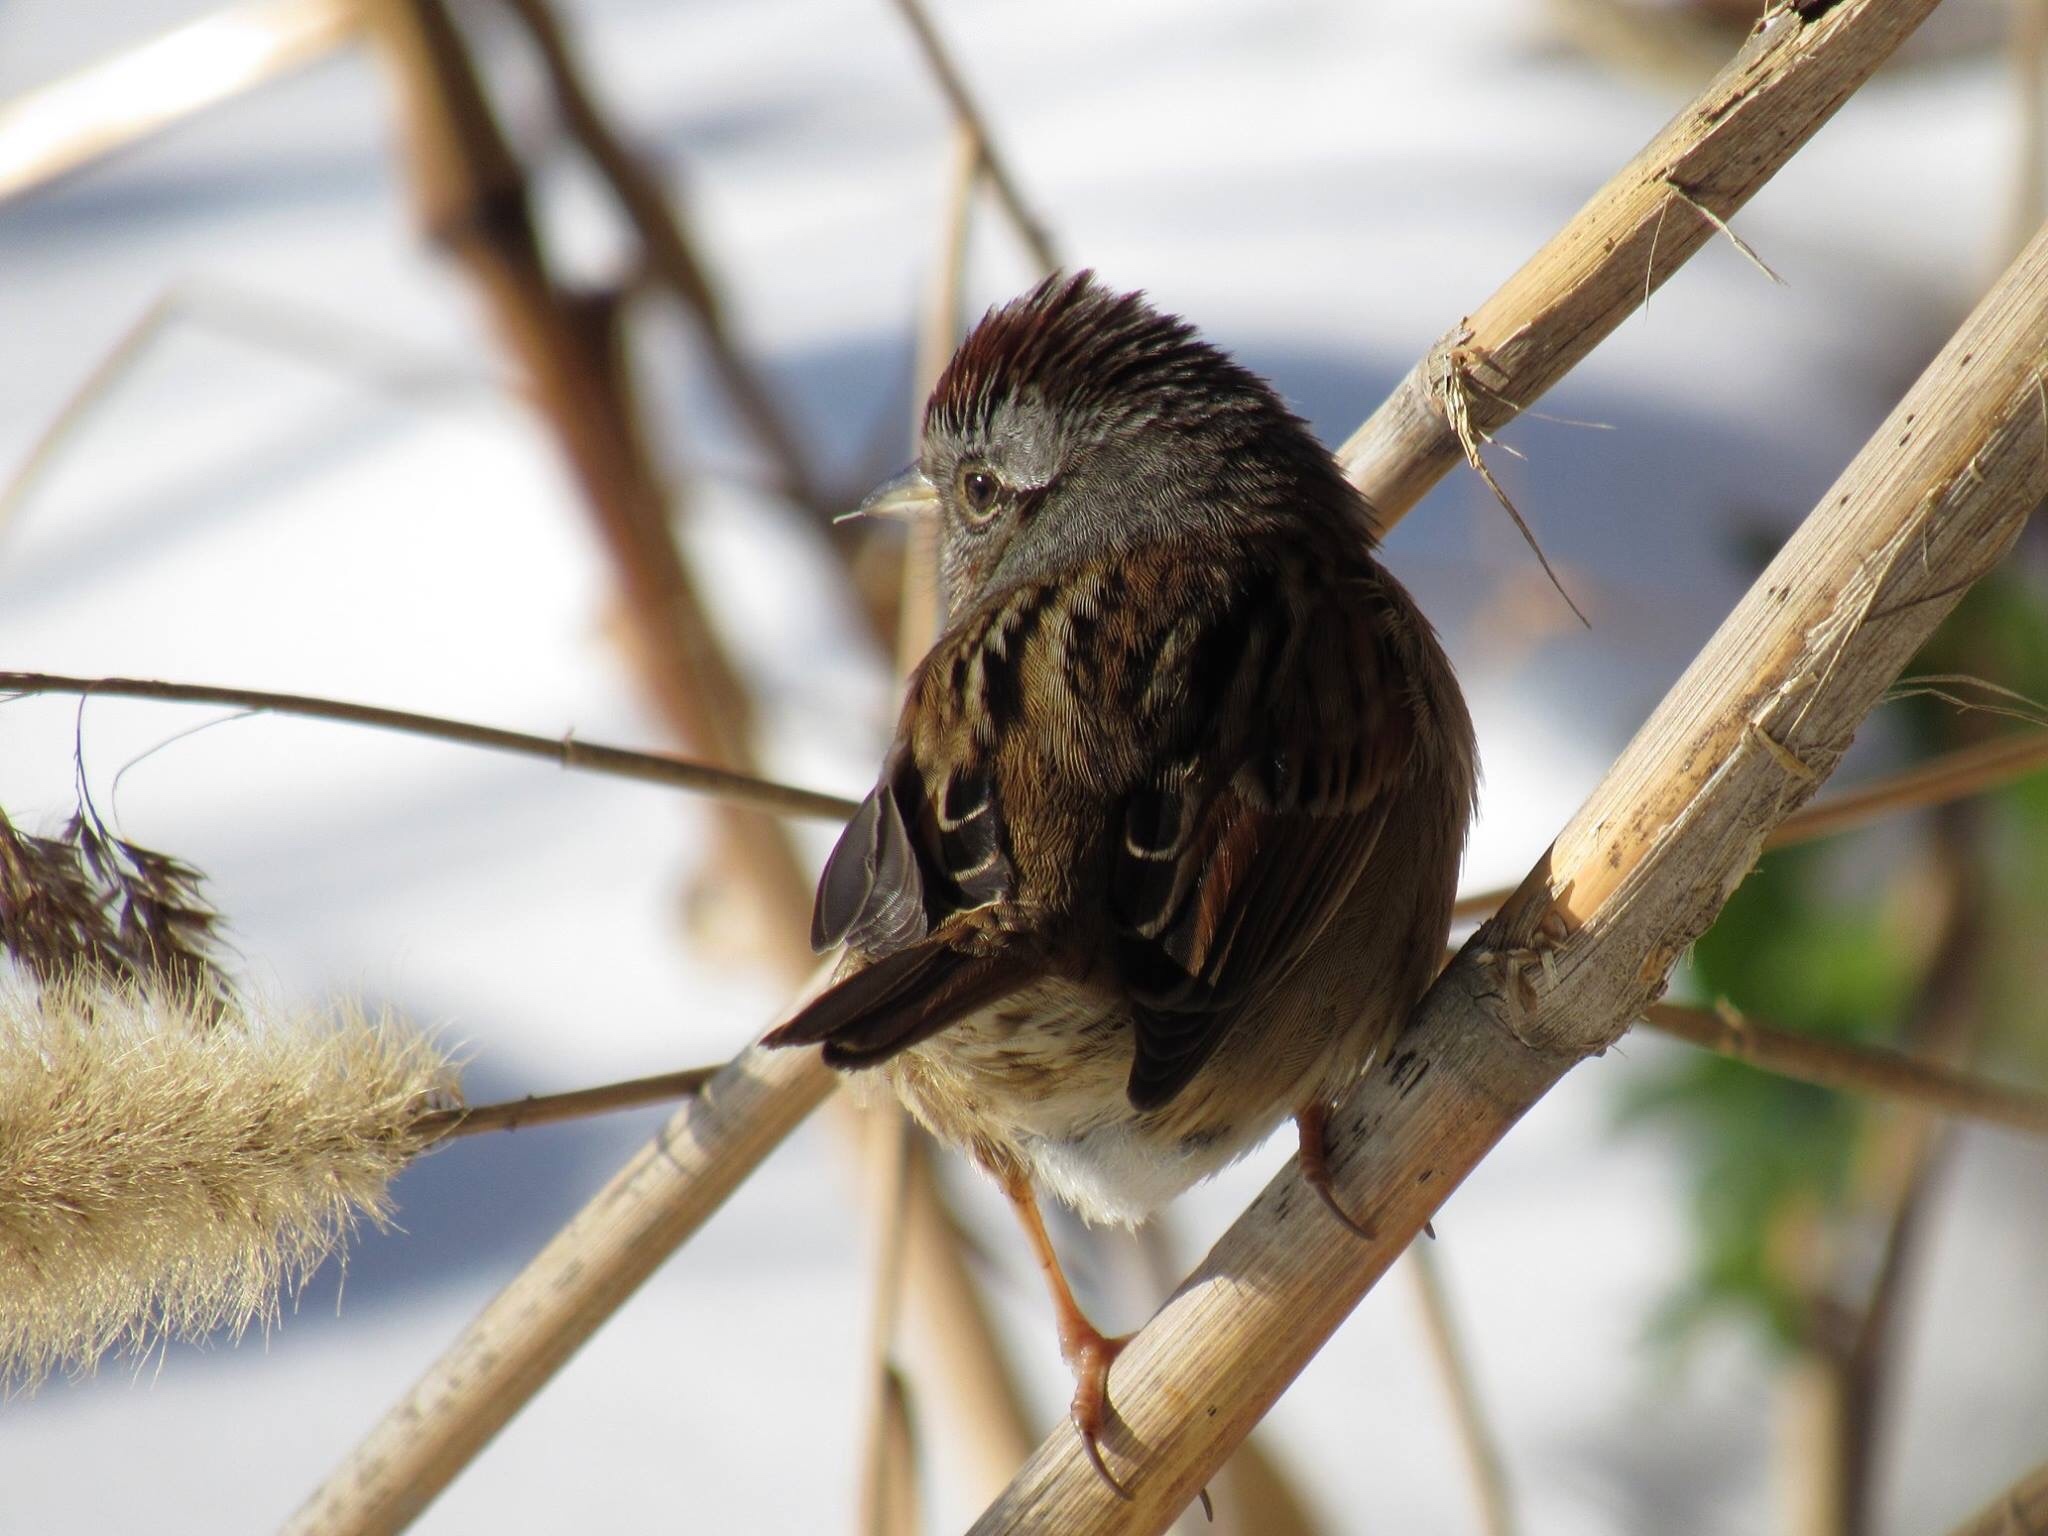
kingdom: Animalia
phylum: Chordata
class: Aves
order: Passeriformes
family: Passerellidae
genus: Melospiza
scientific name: Melospiza georgiana
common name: Swamp sparrow
